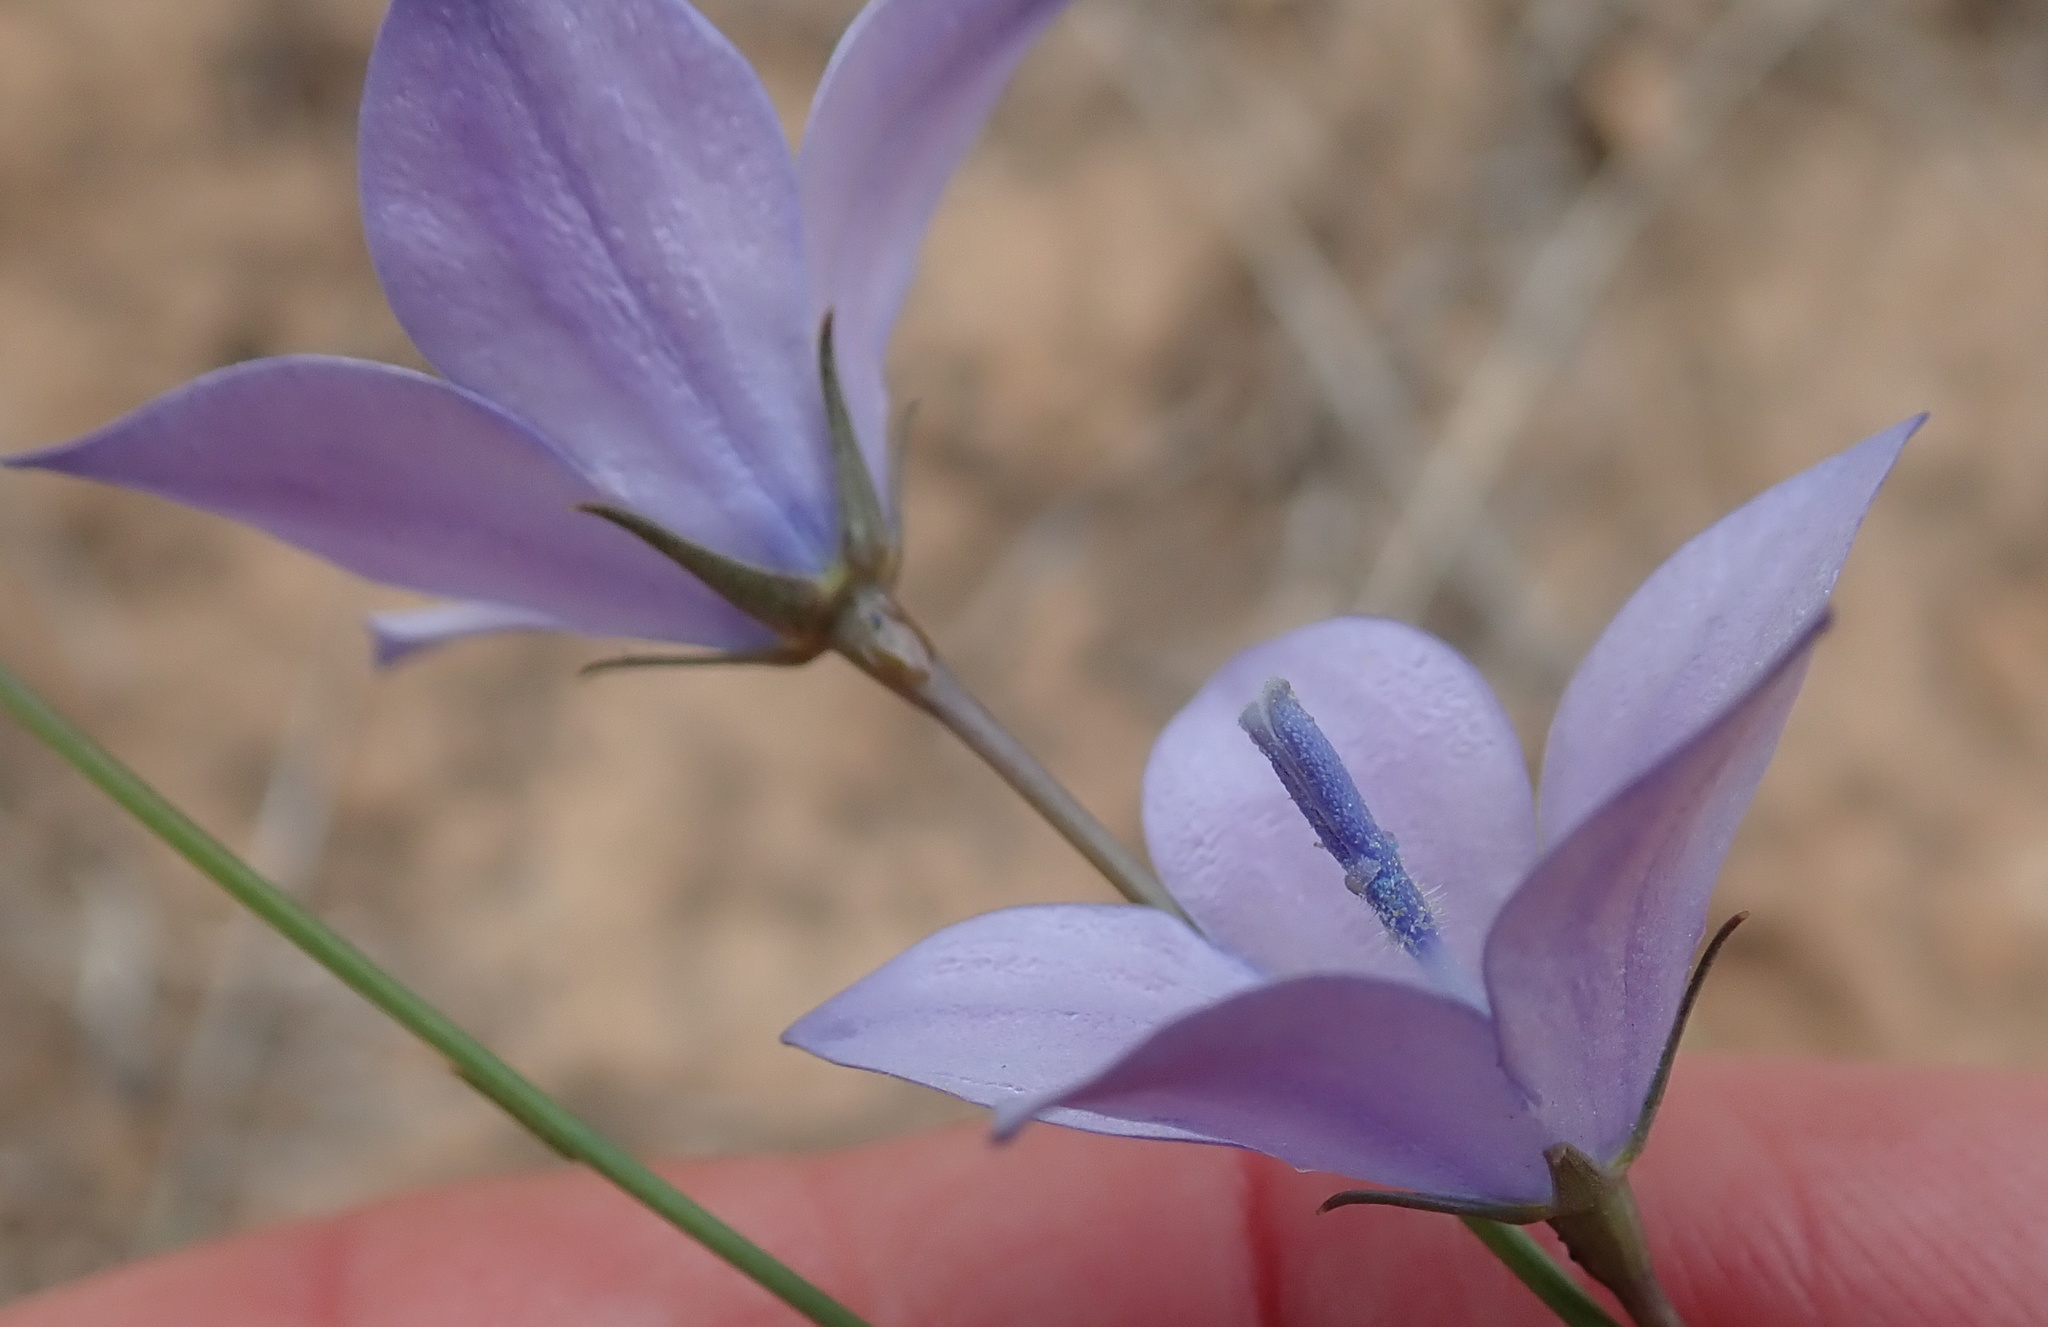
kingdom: Plantae
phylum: Tracheophyta
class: Magnoliopsida
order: Asterales
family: Campanulaceae
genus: Wahlenbergia
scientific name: Wahlenbergia krebsii
